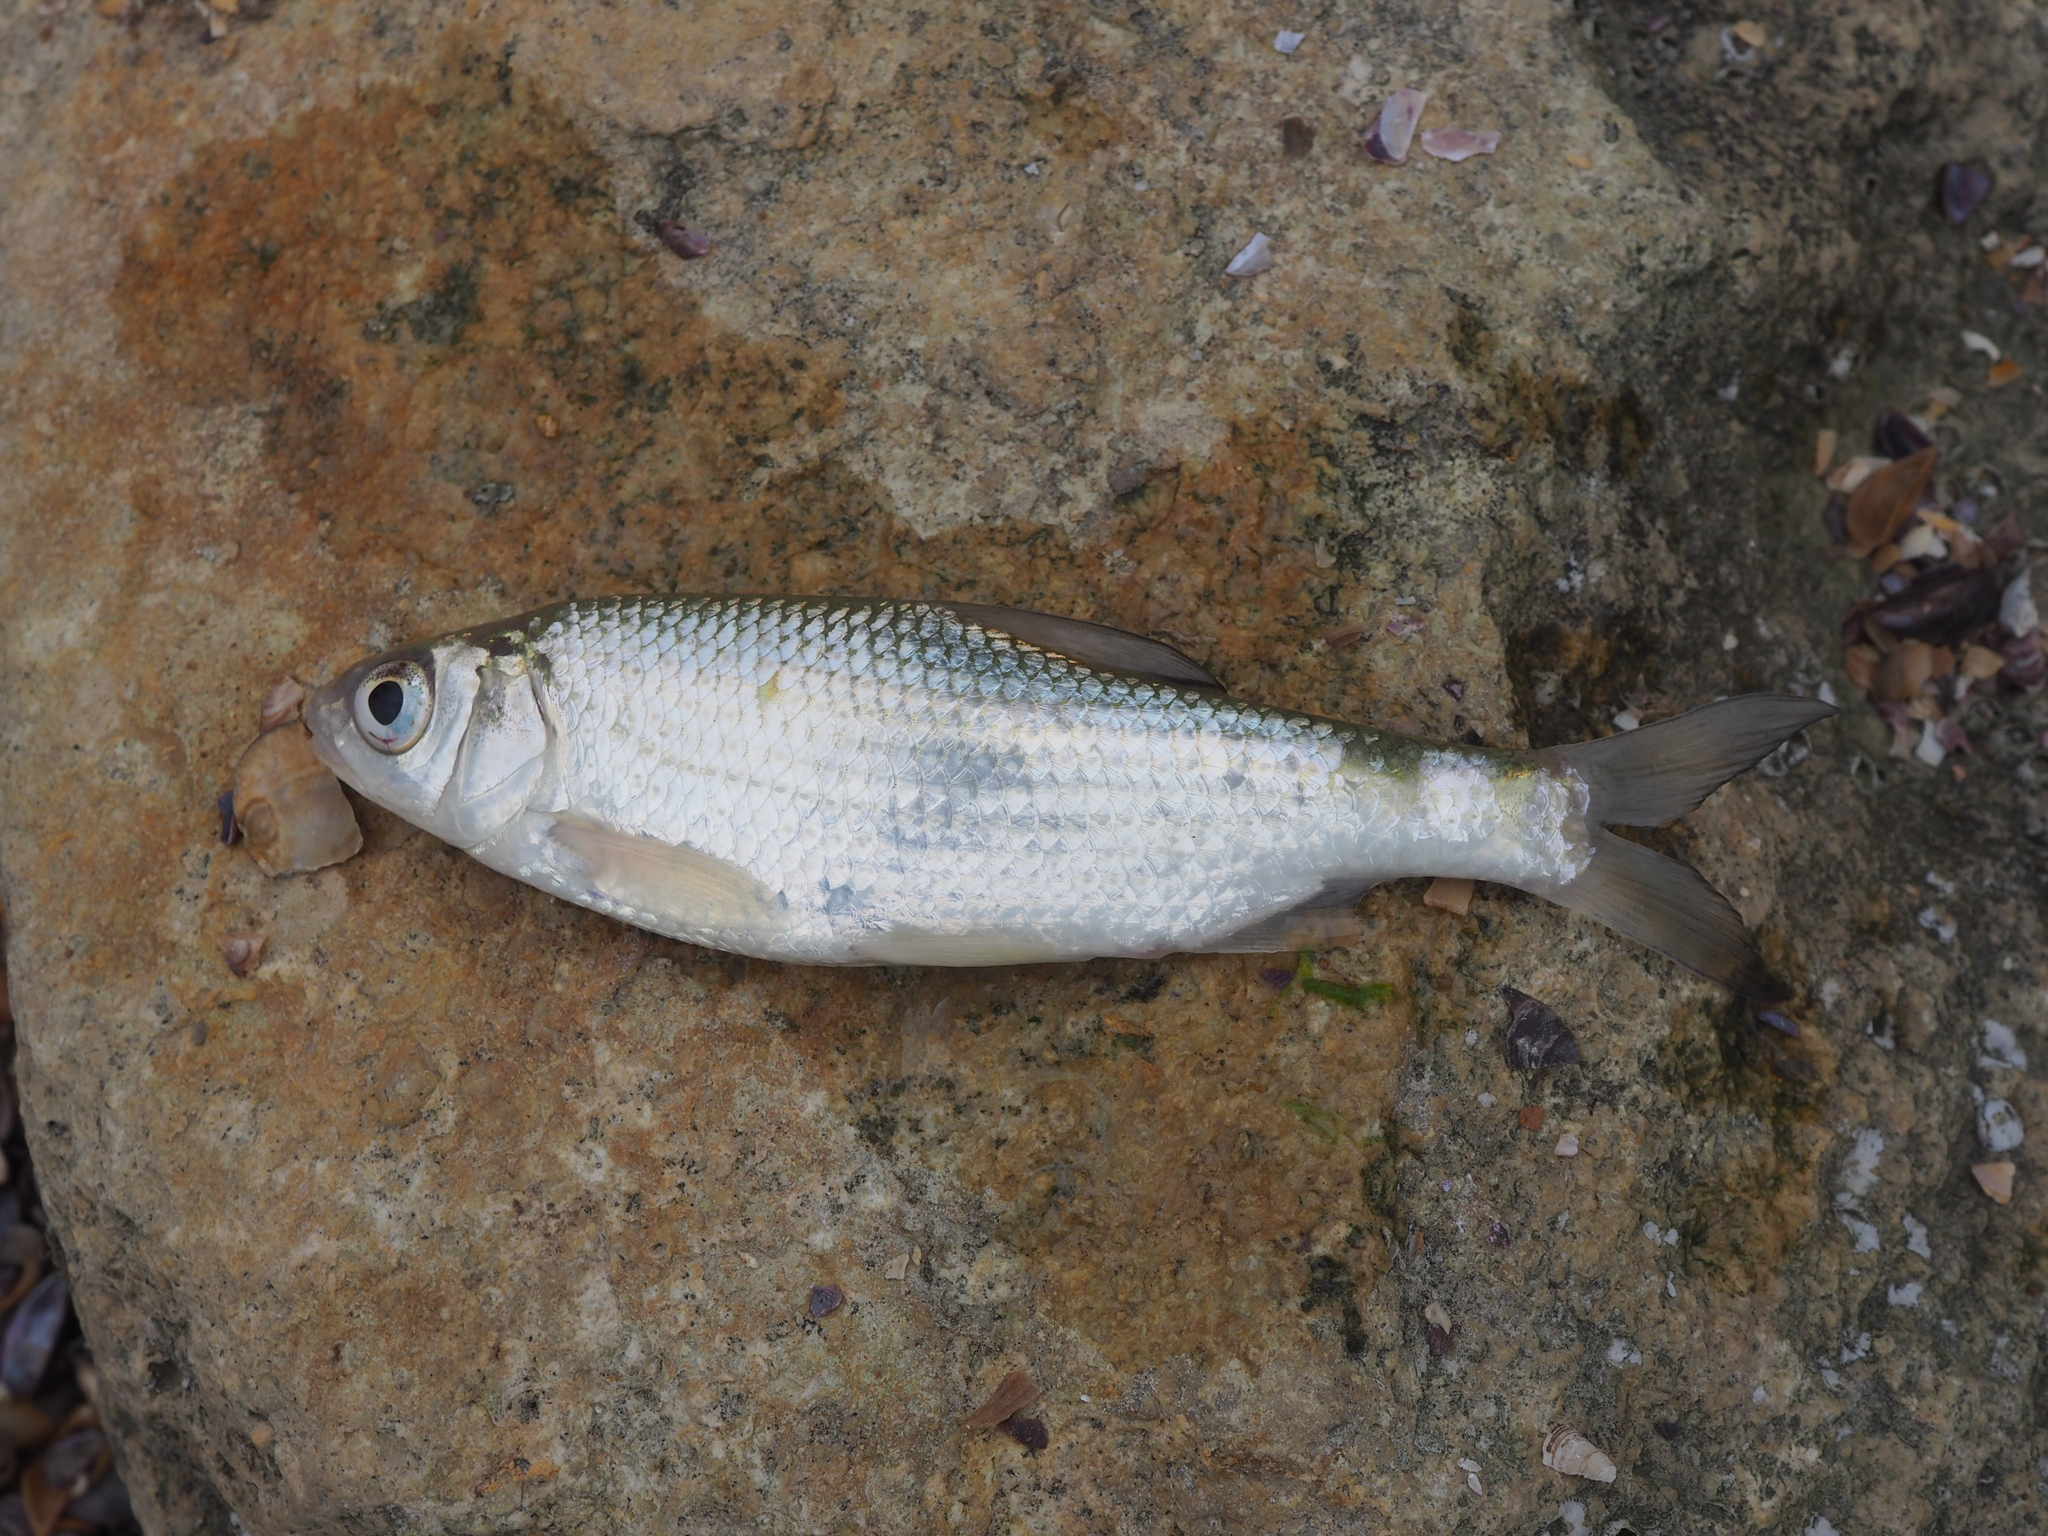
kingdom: Animalia
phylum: Chordata
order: Cypriniformes
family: Cyprinidae
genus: Rutilus
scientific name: Rutilus rutilus
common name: Roach
